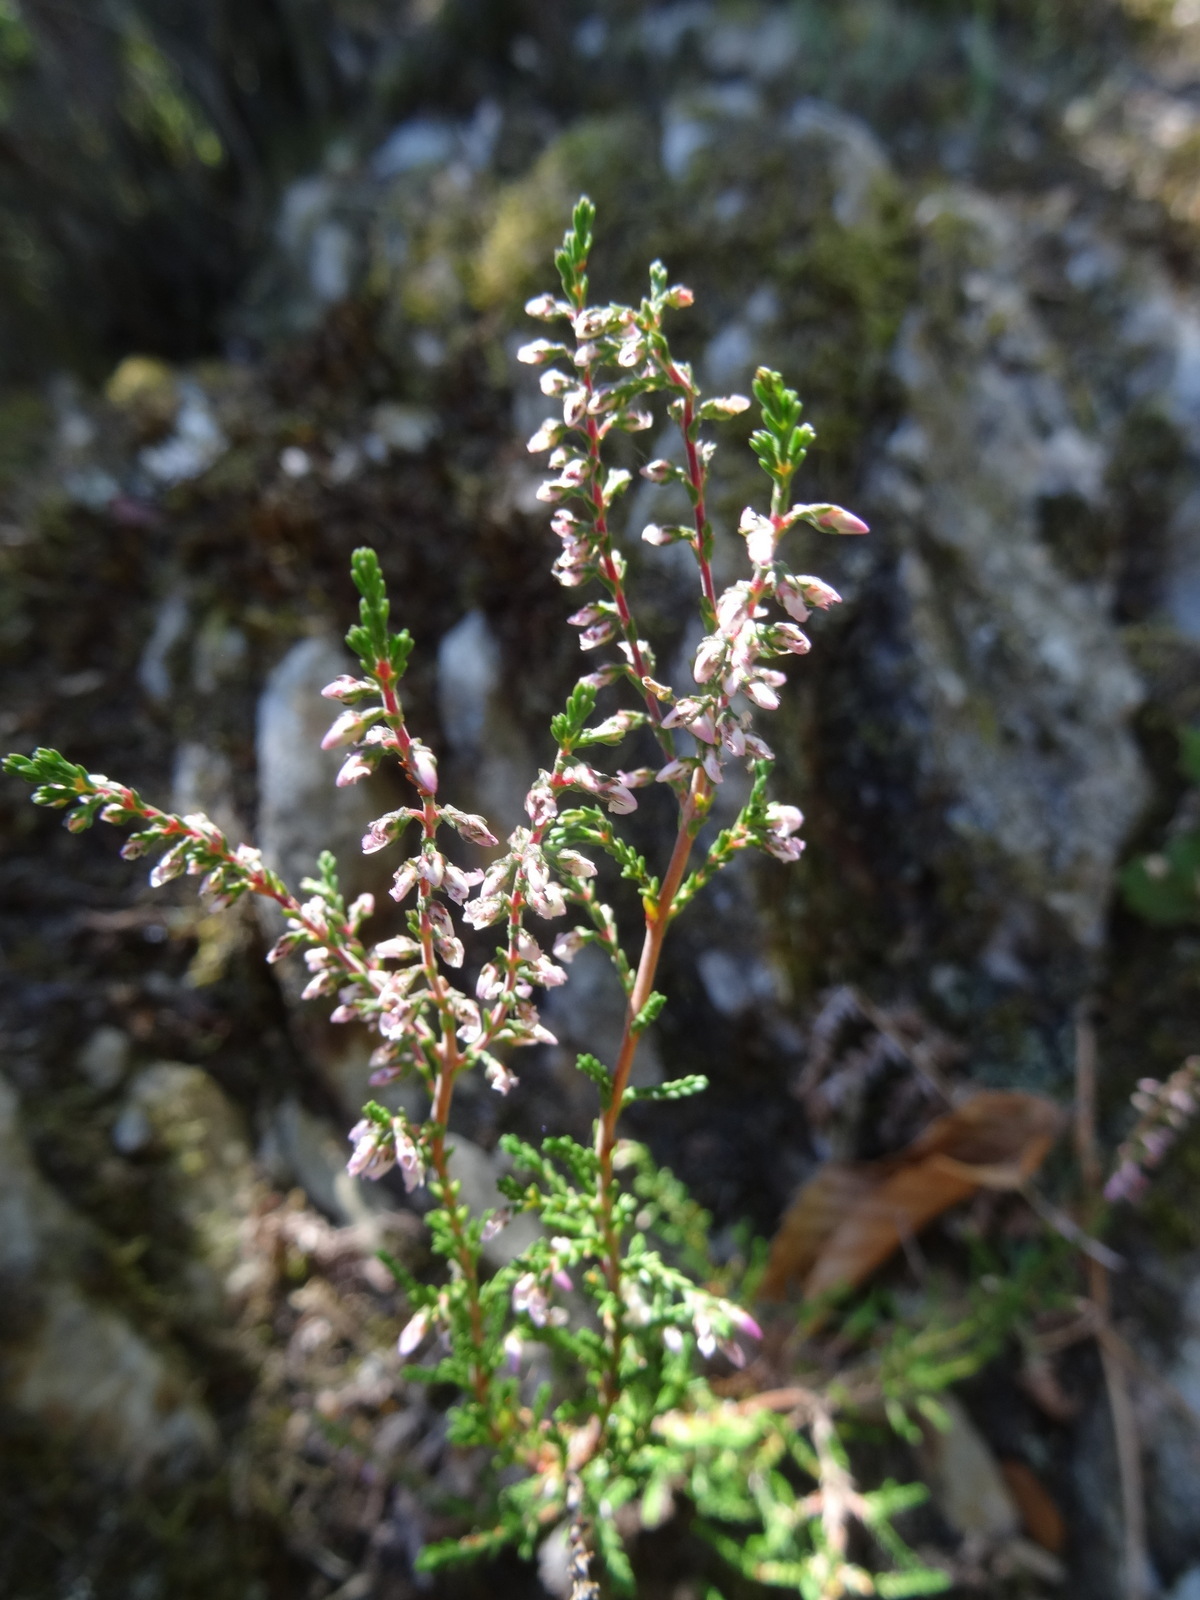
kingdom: Plantae
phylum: Tracheophyta
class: Magnoliopsida
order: Ericales
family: Ericaceae
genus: Calluna
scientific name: Calluna vulgaris
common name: Heather
